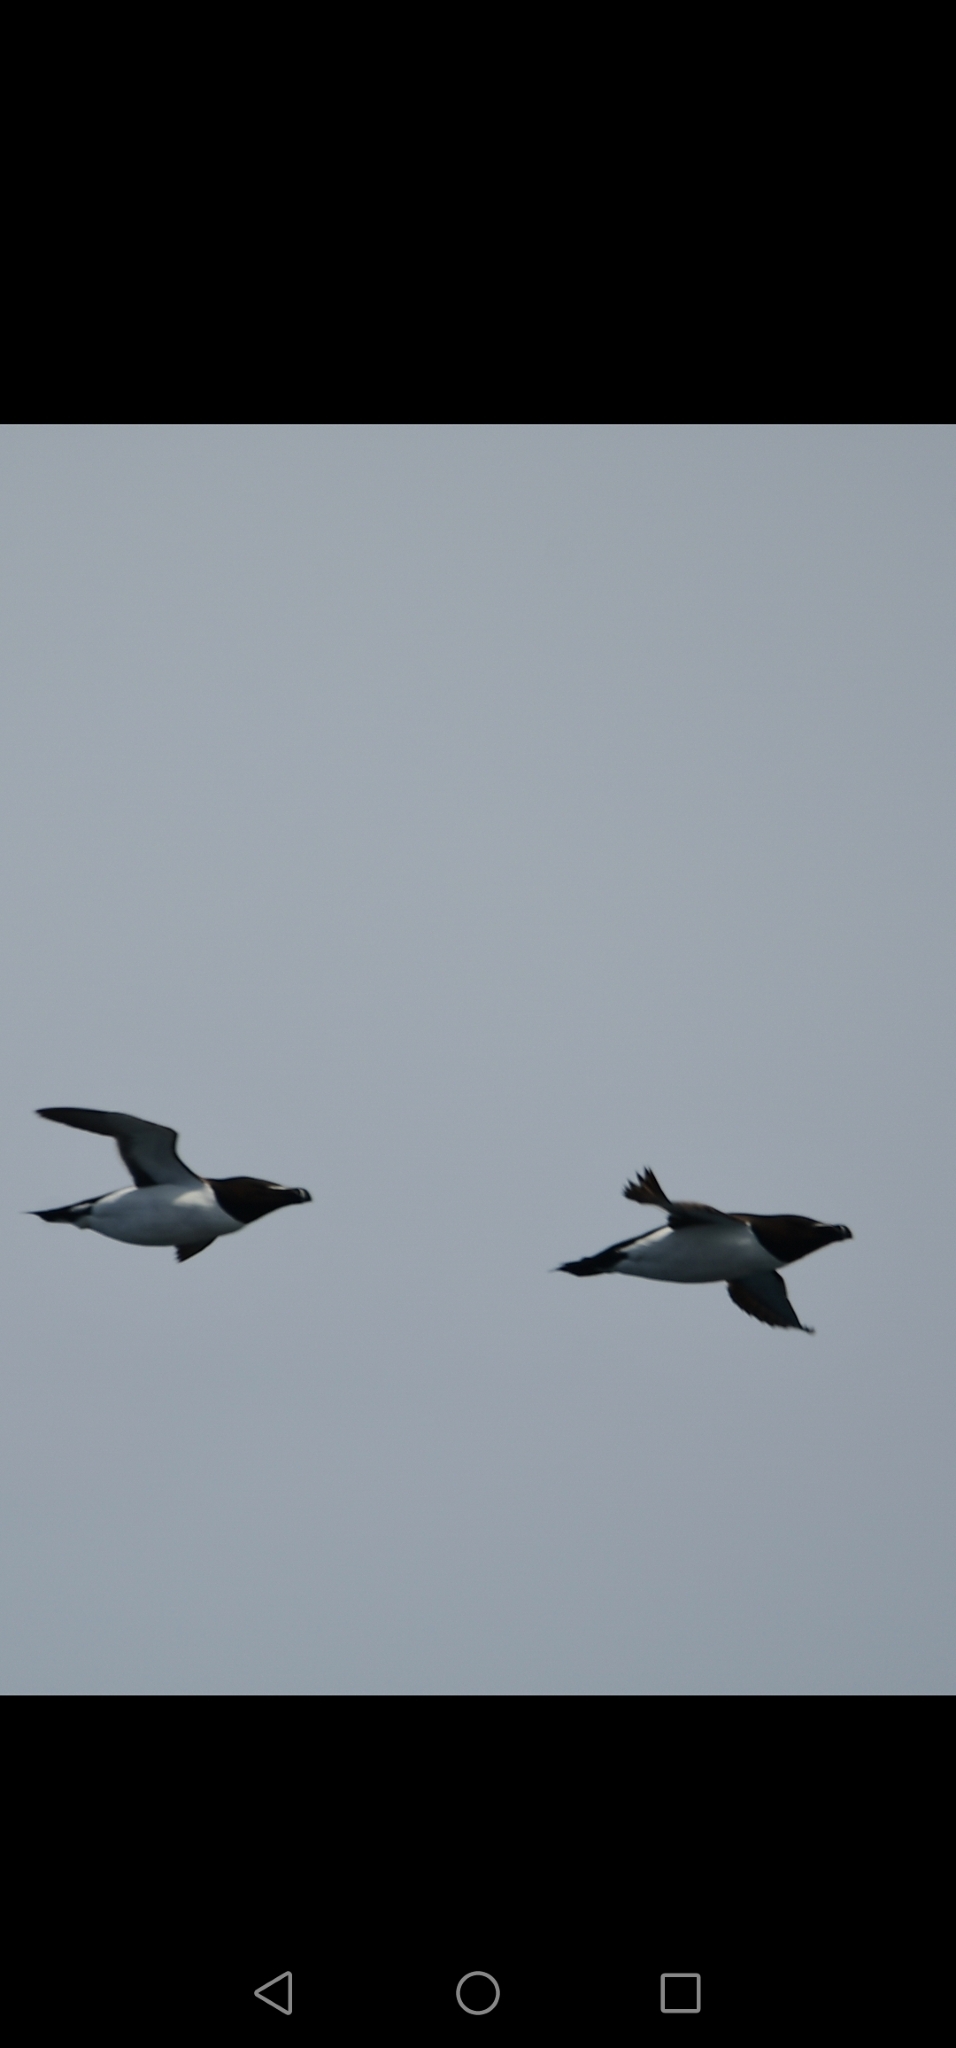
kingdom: Animalia
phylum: Chordata
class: Aves
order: Charadriiformes
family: Alcidae
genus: Alca
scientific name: Alca torda
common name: Razorbill
